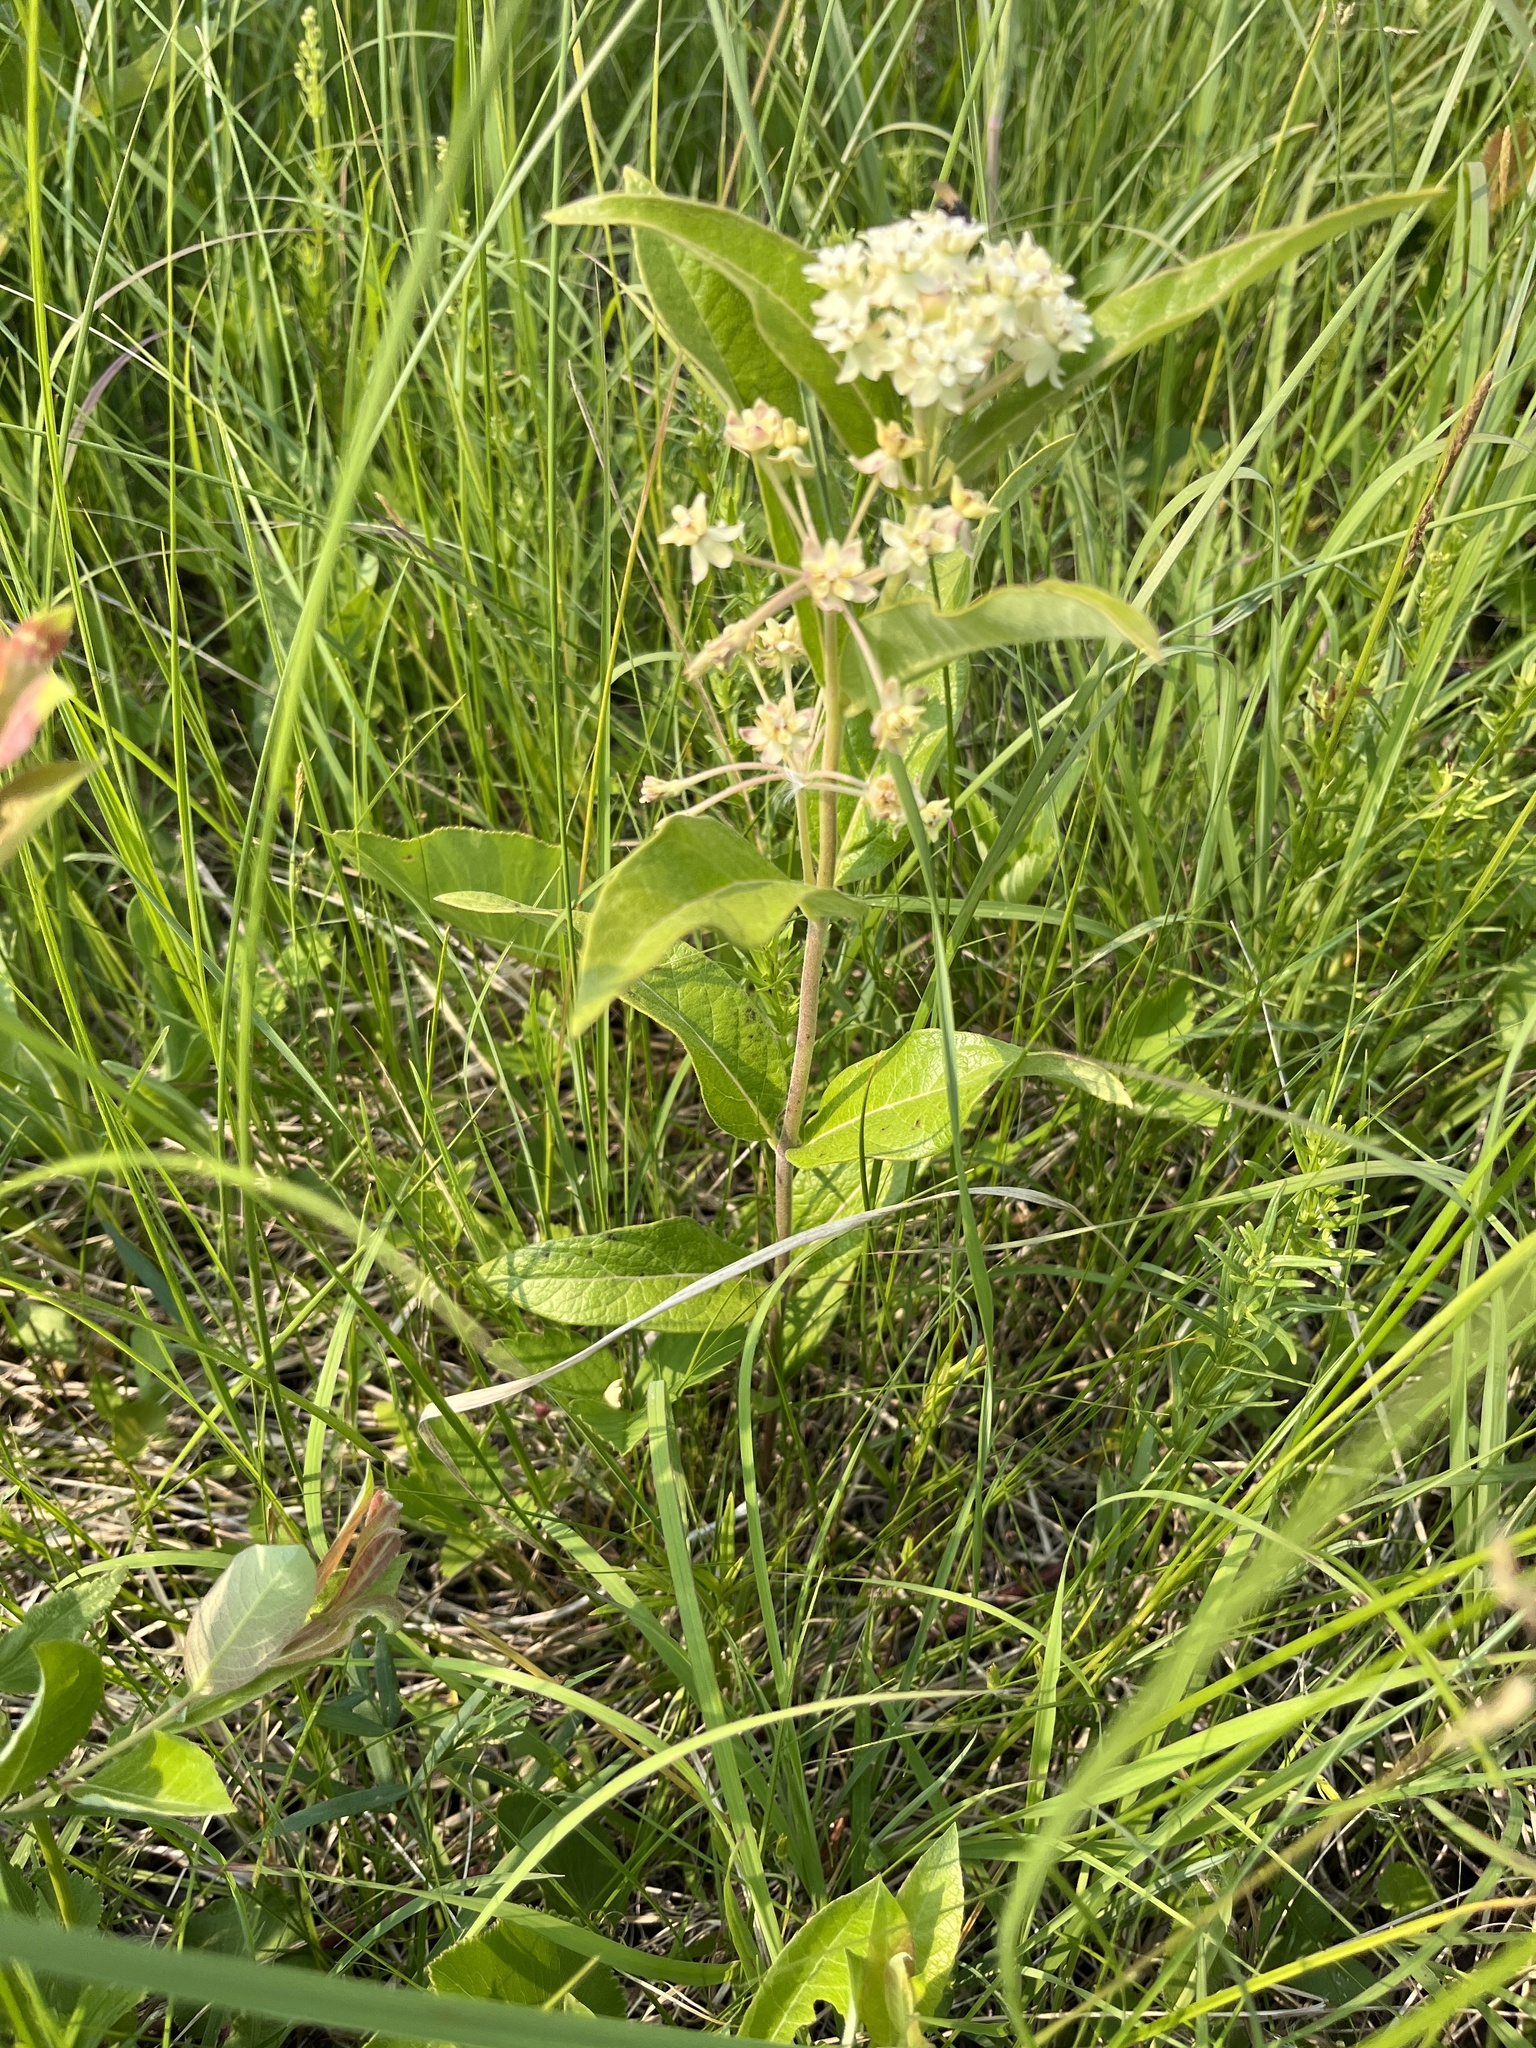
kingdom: Plantae
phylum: Tracheophyta
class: Magnoliopsida
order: Gentianales
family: Apocynaceae
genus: Asclepias
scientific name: Asclepias ovalifolia
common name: Dwarf milkweed
